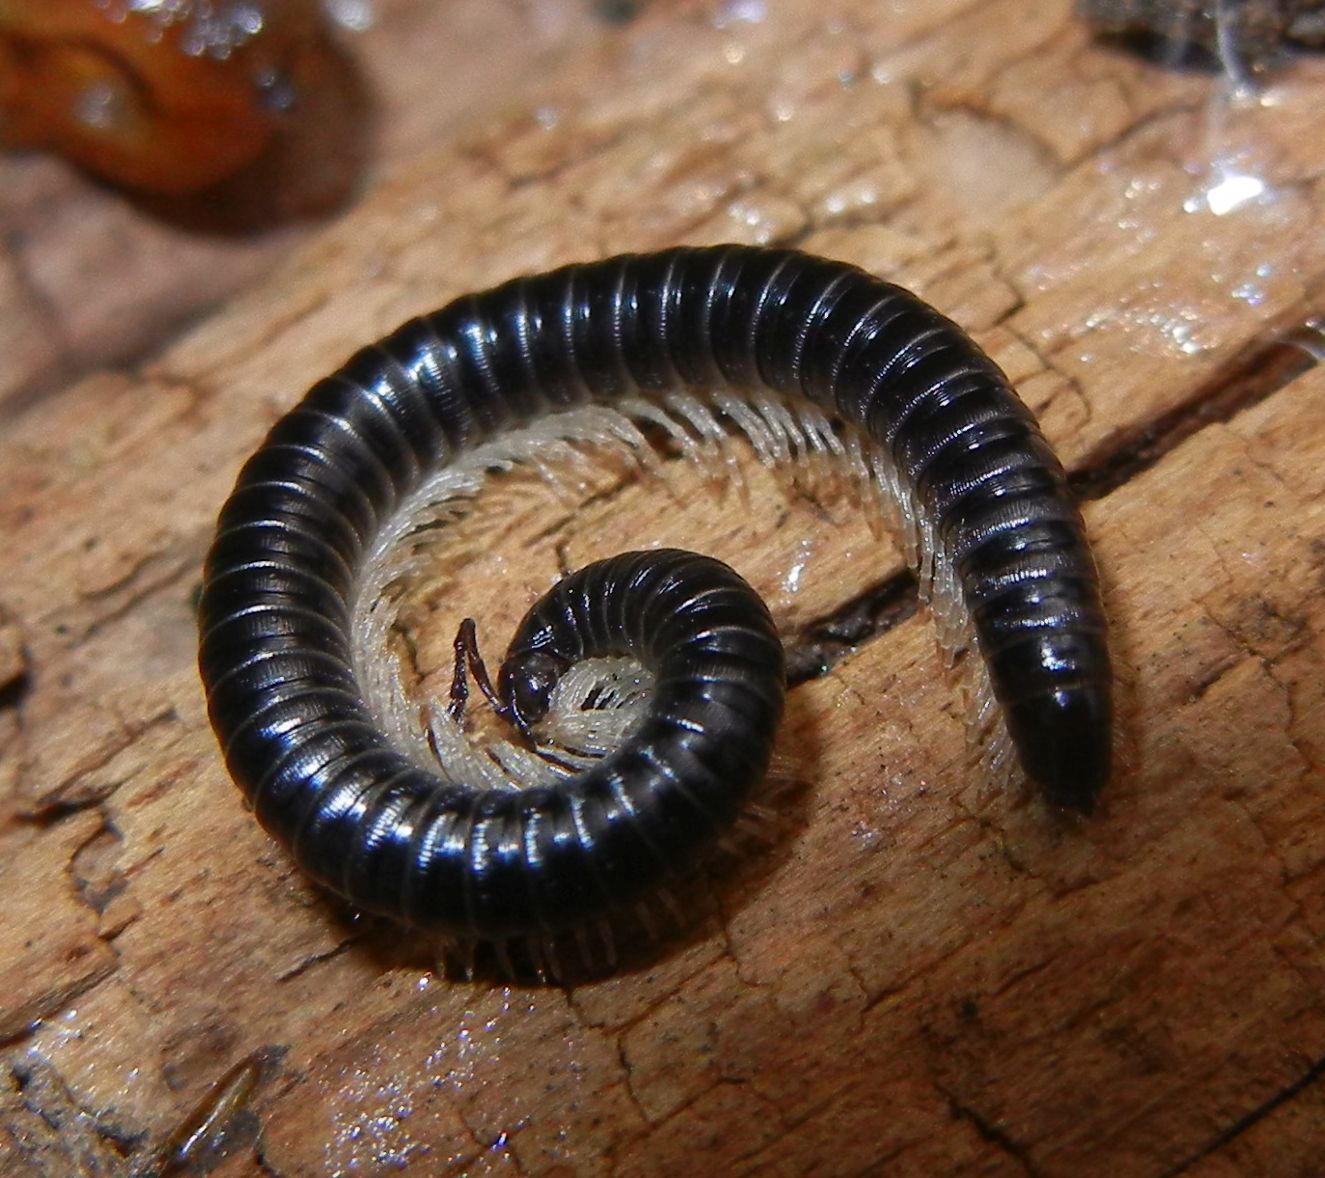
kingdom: Animalia
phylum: Arthropoda
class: Diplopoda
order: Julida
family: Julidae
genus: Tachypodoiulus
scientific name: Tachypodoiulus niger
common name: White-legged snake millipede
